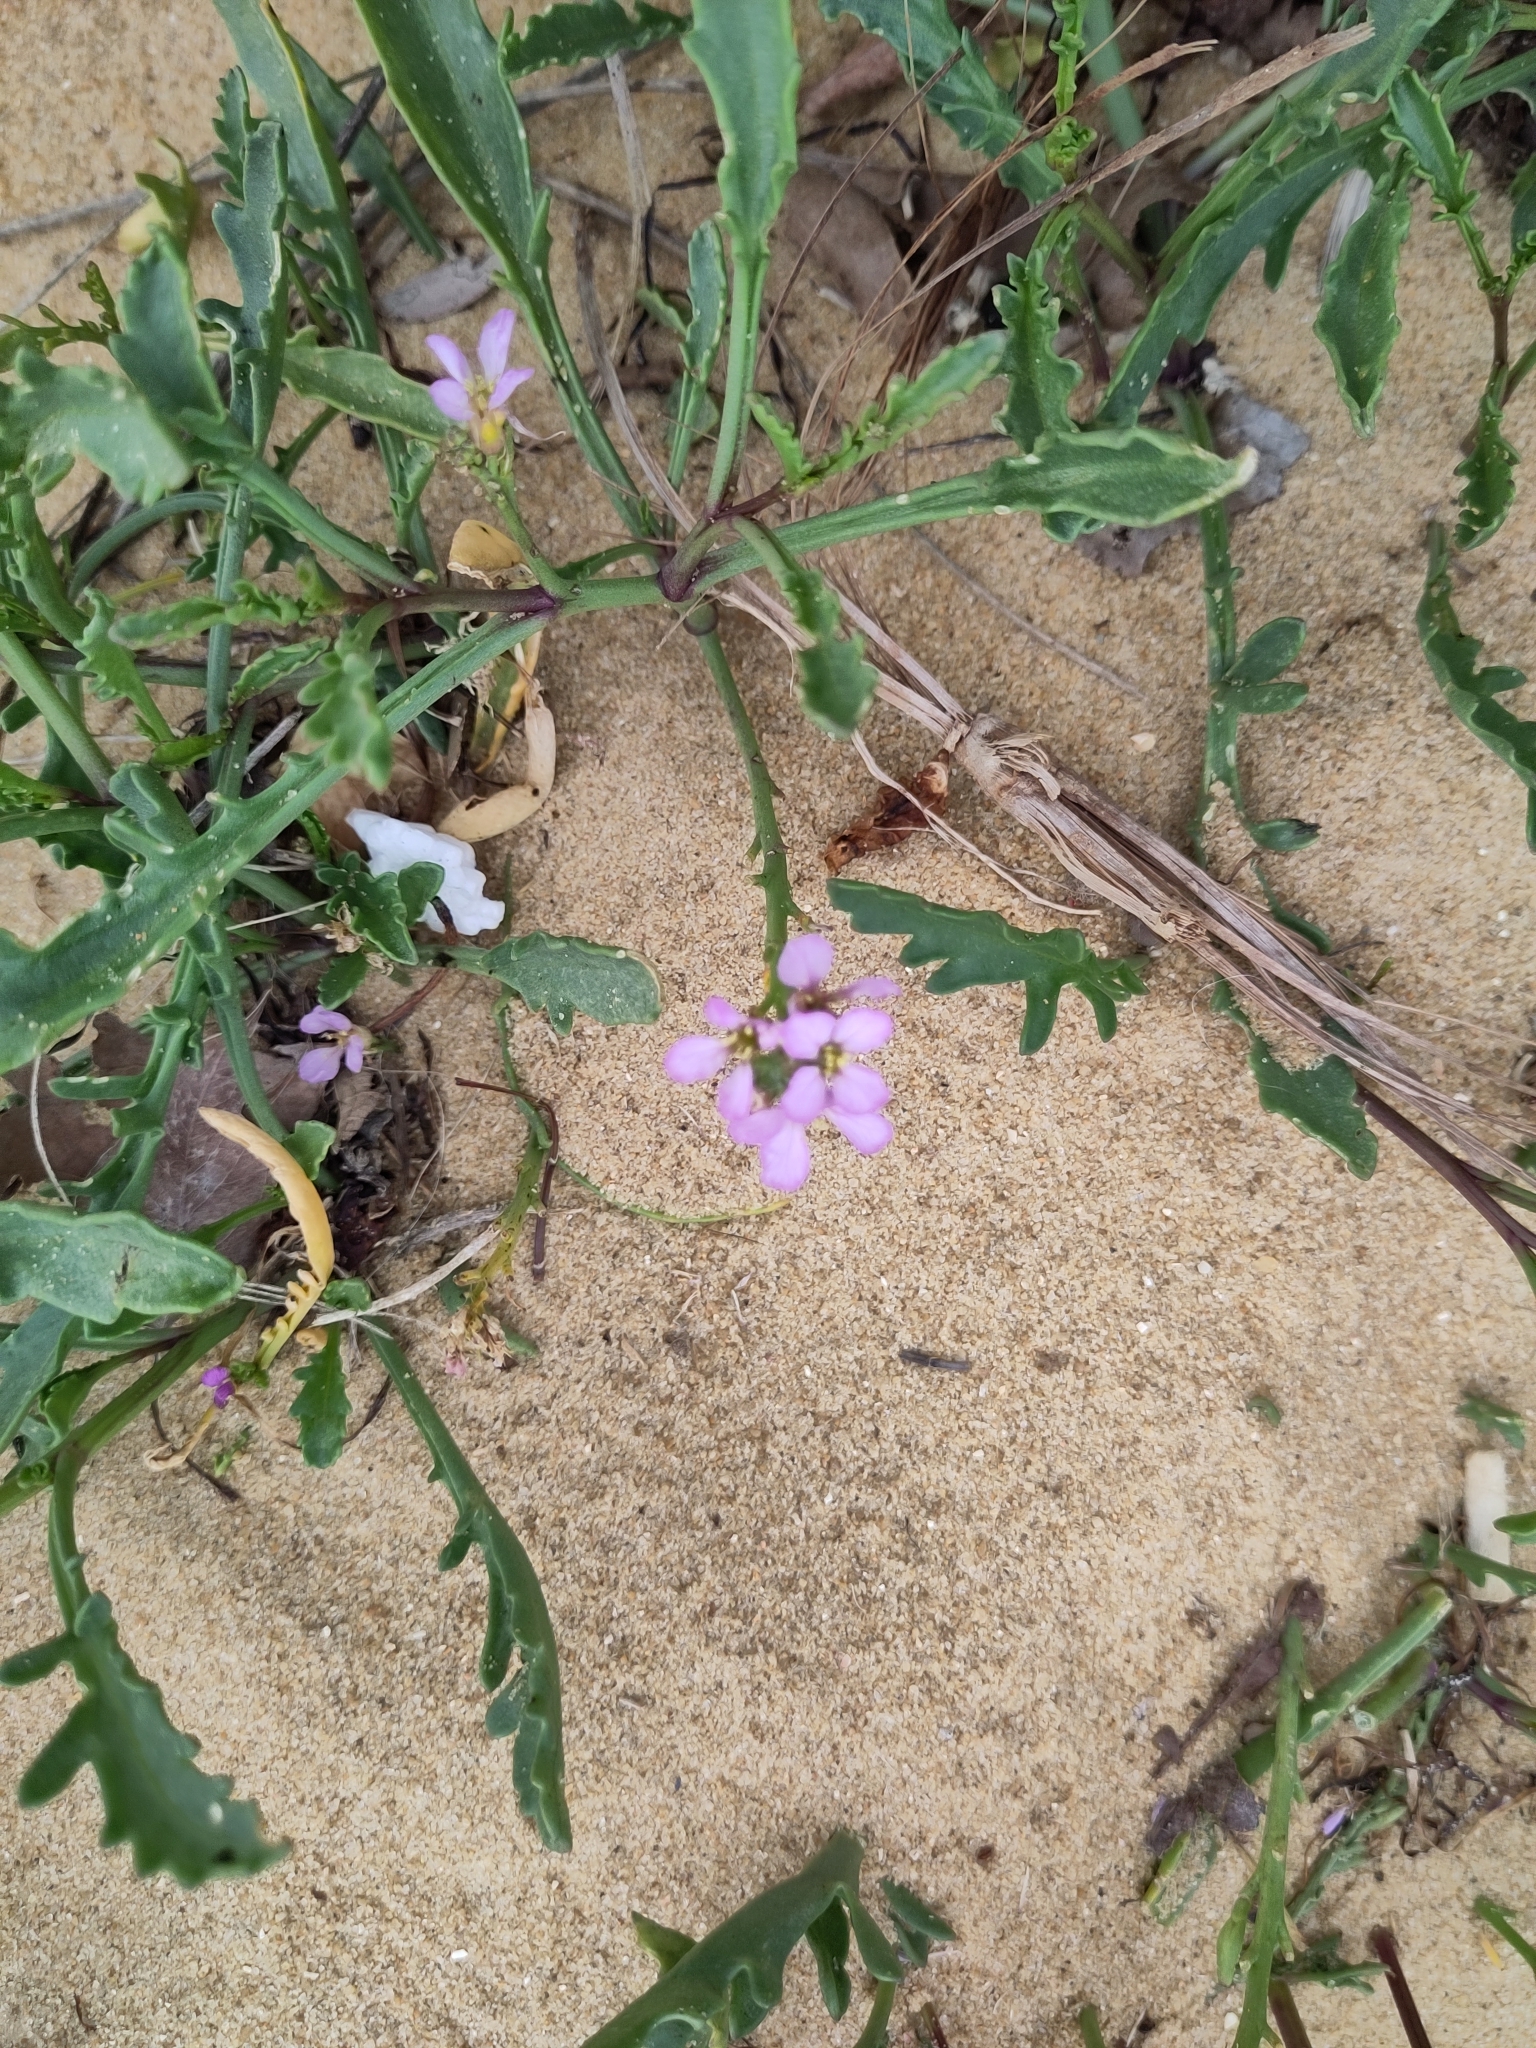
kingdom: Plantae
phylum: Tracheophyta
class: Magnoliopsida
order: Brassicales
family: Brassicaceae
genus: Cakile
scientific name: Cakile maritima
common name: Sea rocket
